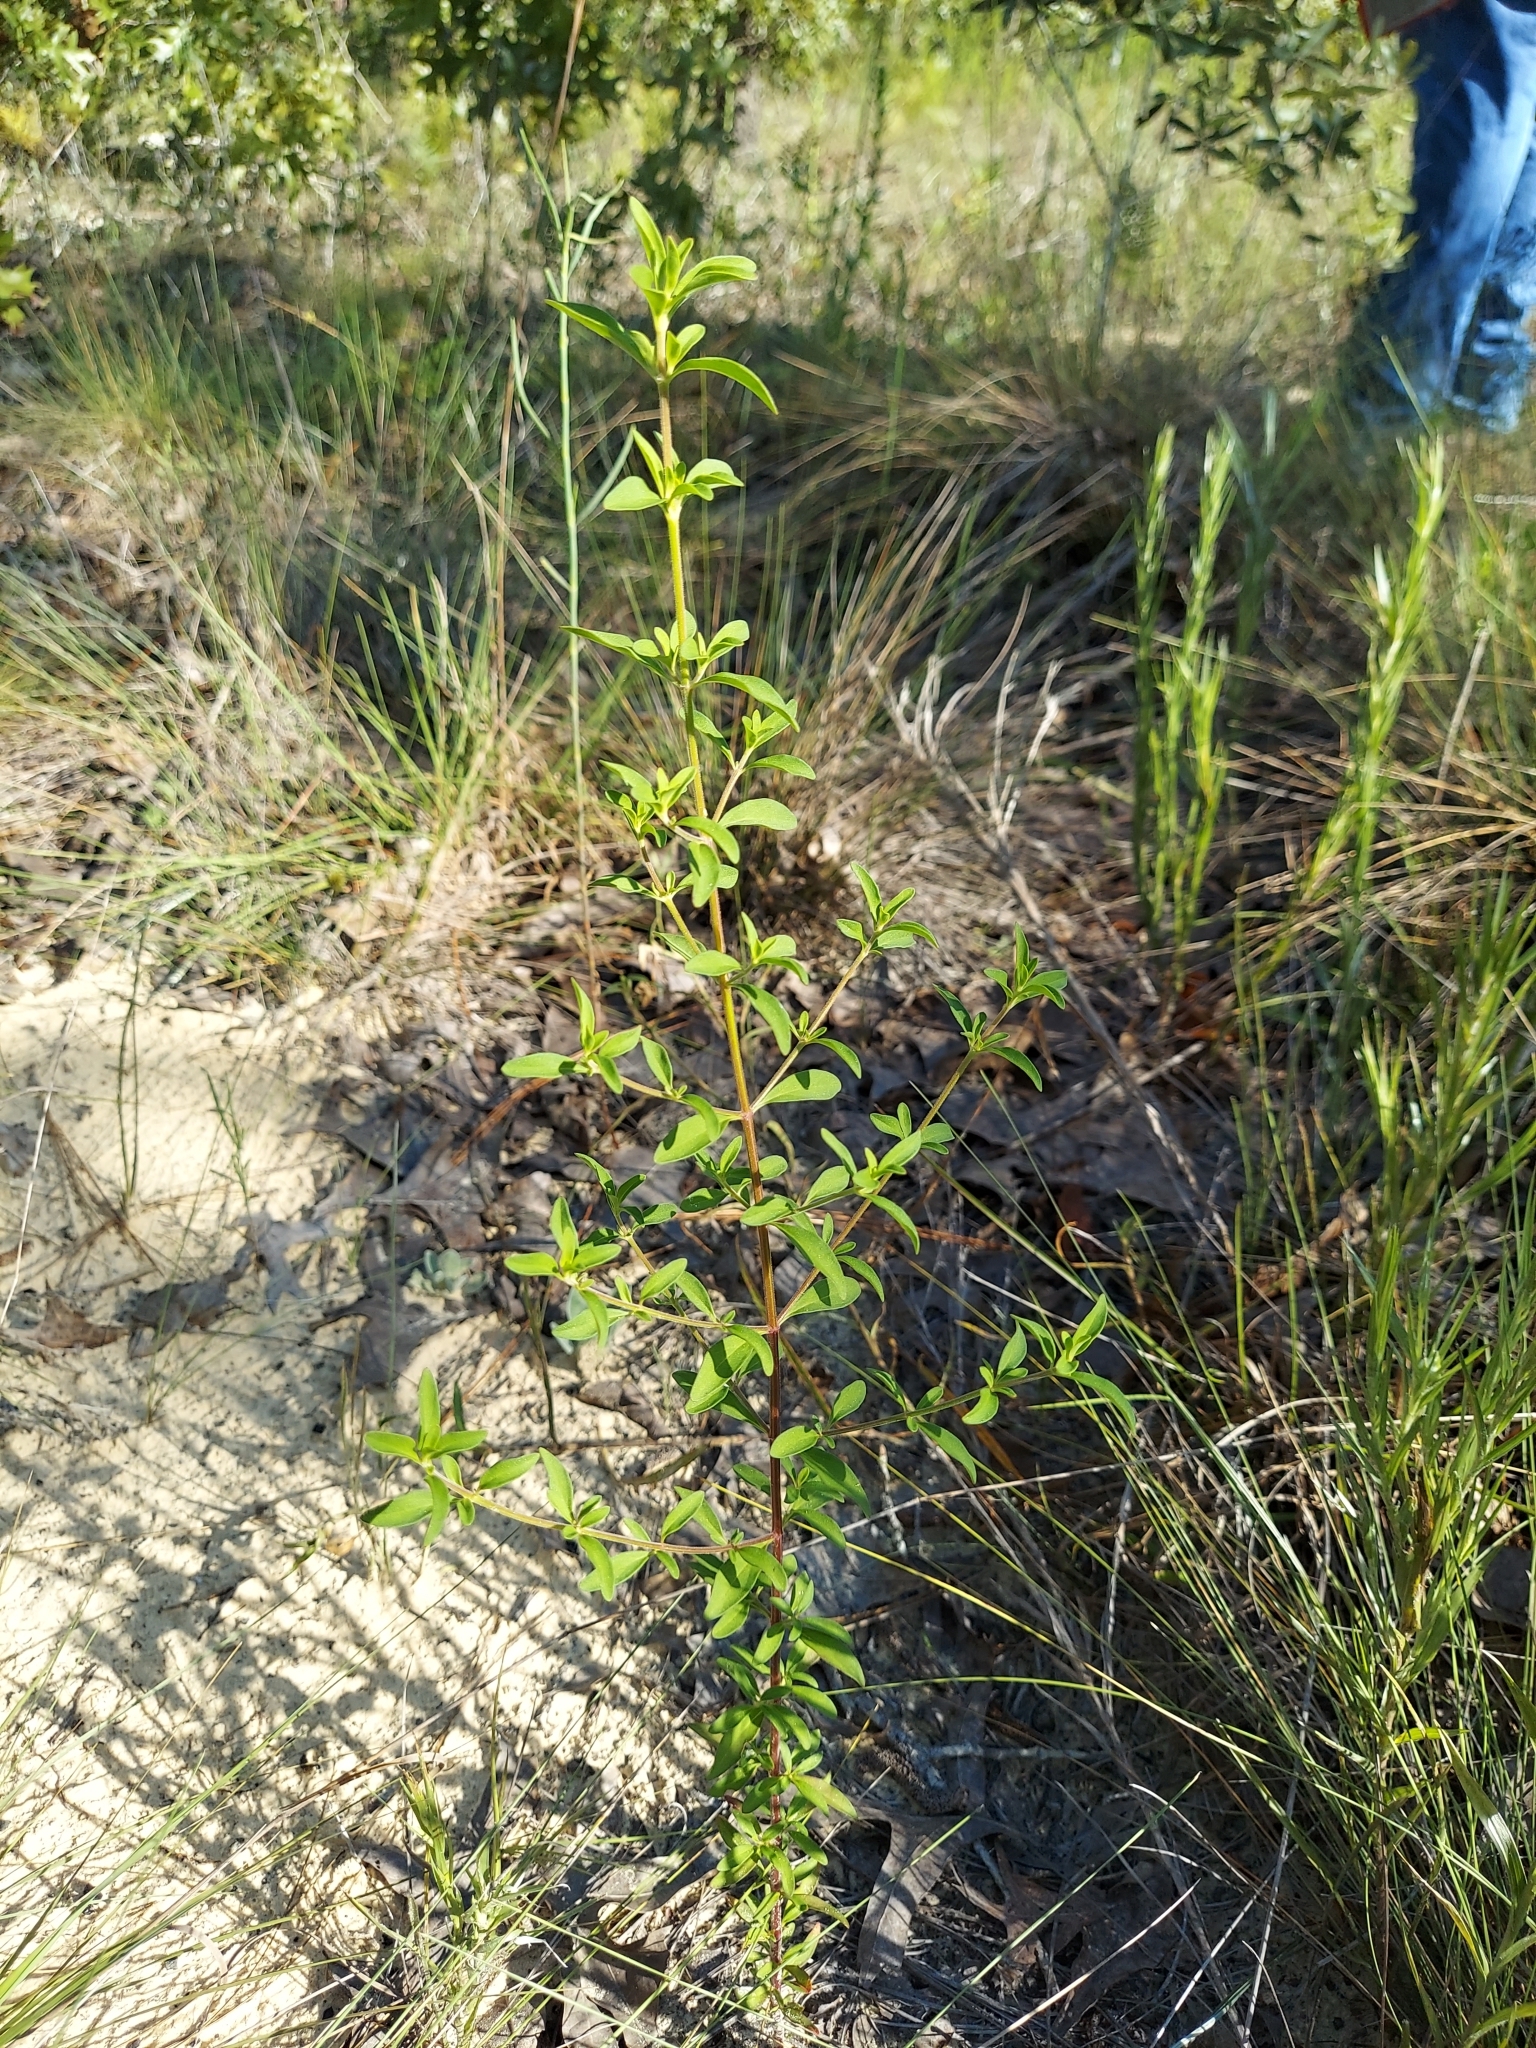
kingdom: Plantae
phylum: Tracheophyta
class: Magnoliopsida
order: Lamiales
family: Lamiaceae
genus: Trichostema
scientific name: Trichostema dichotomum
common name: Bastard pennyroyal
